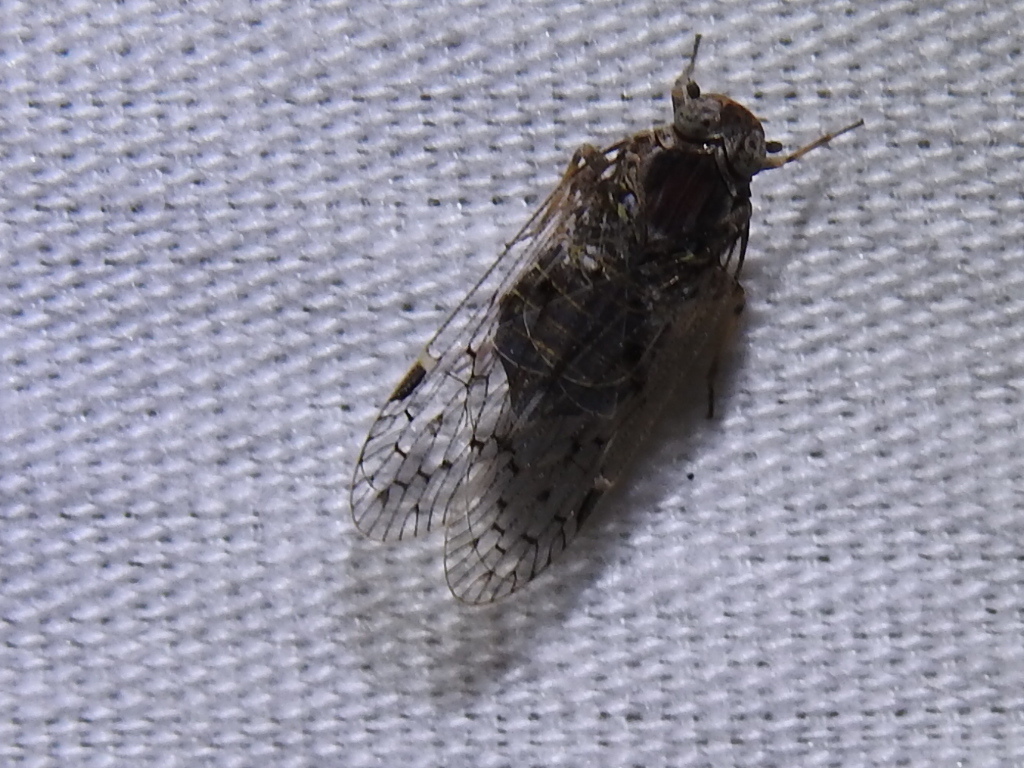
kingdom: Animalia
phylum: Arthropoda
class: Insecta
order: Hemiptera
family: Cixiidae
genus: Melanoliarus
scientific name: Melanoliarus aridus
